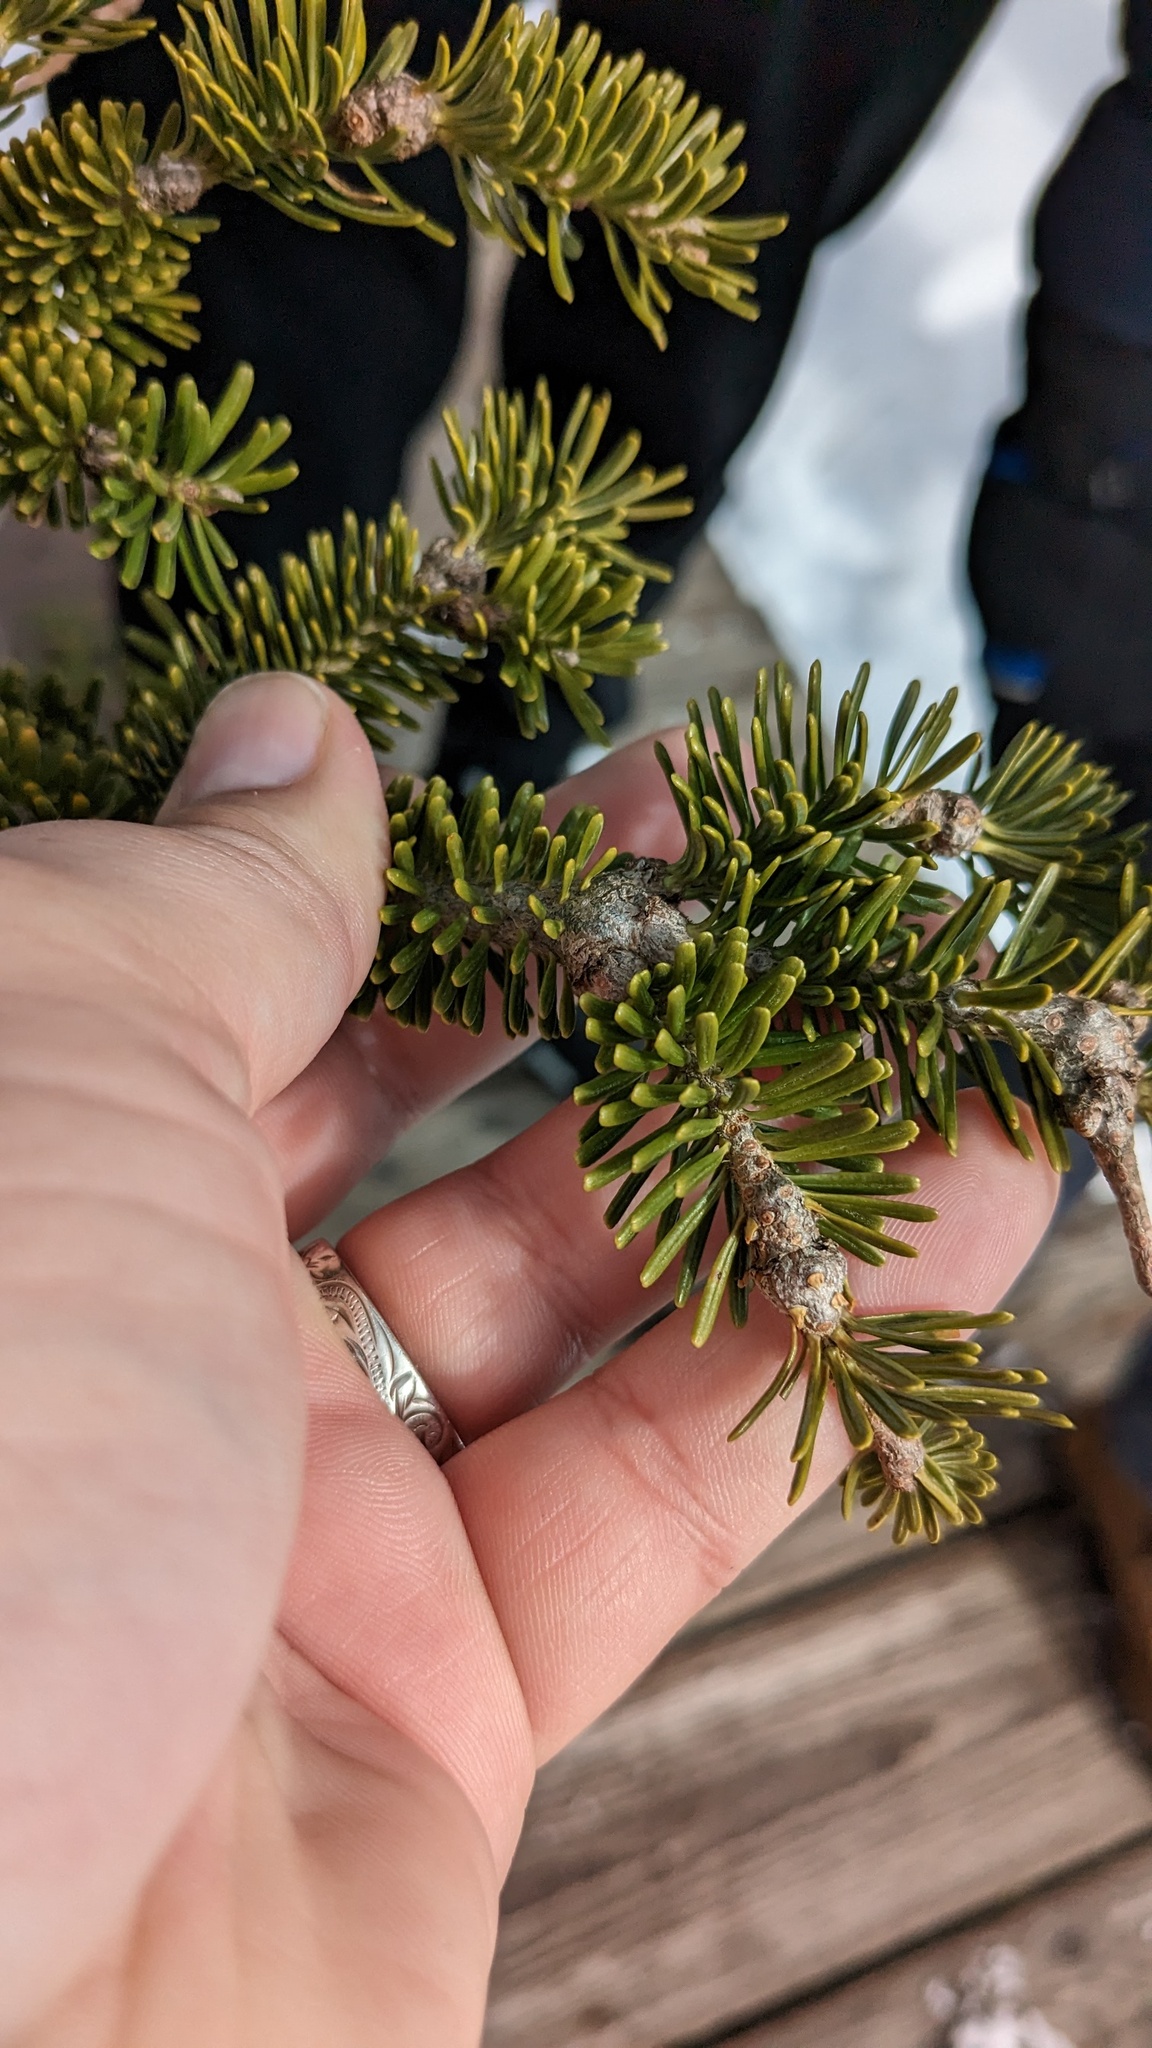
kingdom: Plantae
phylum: Tracheophyta
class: Pinopsida
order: Pinales
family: Pinaceae
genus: Abies
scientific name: Abies balsamea
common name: Balsam fir
